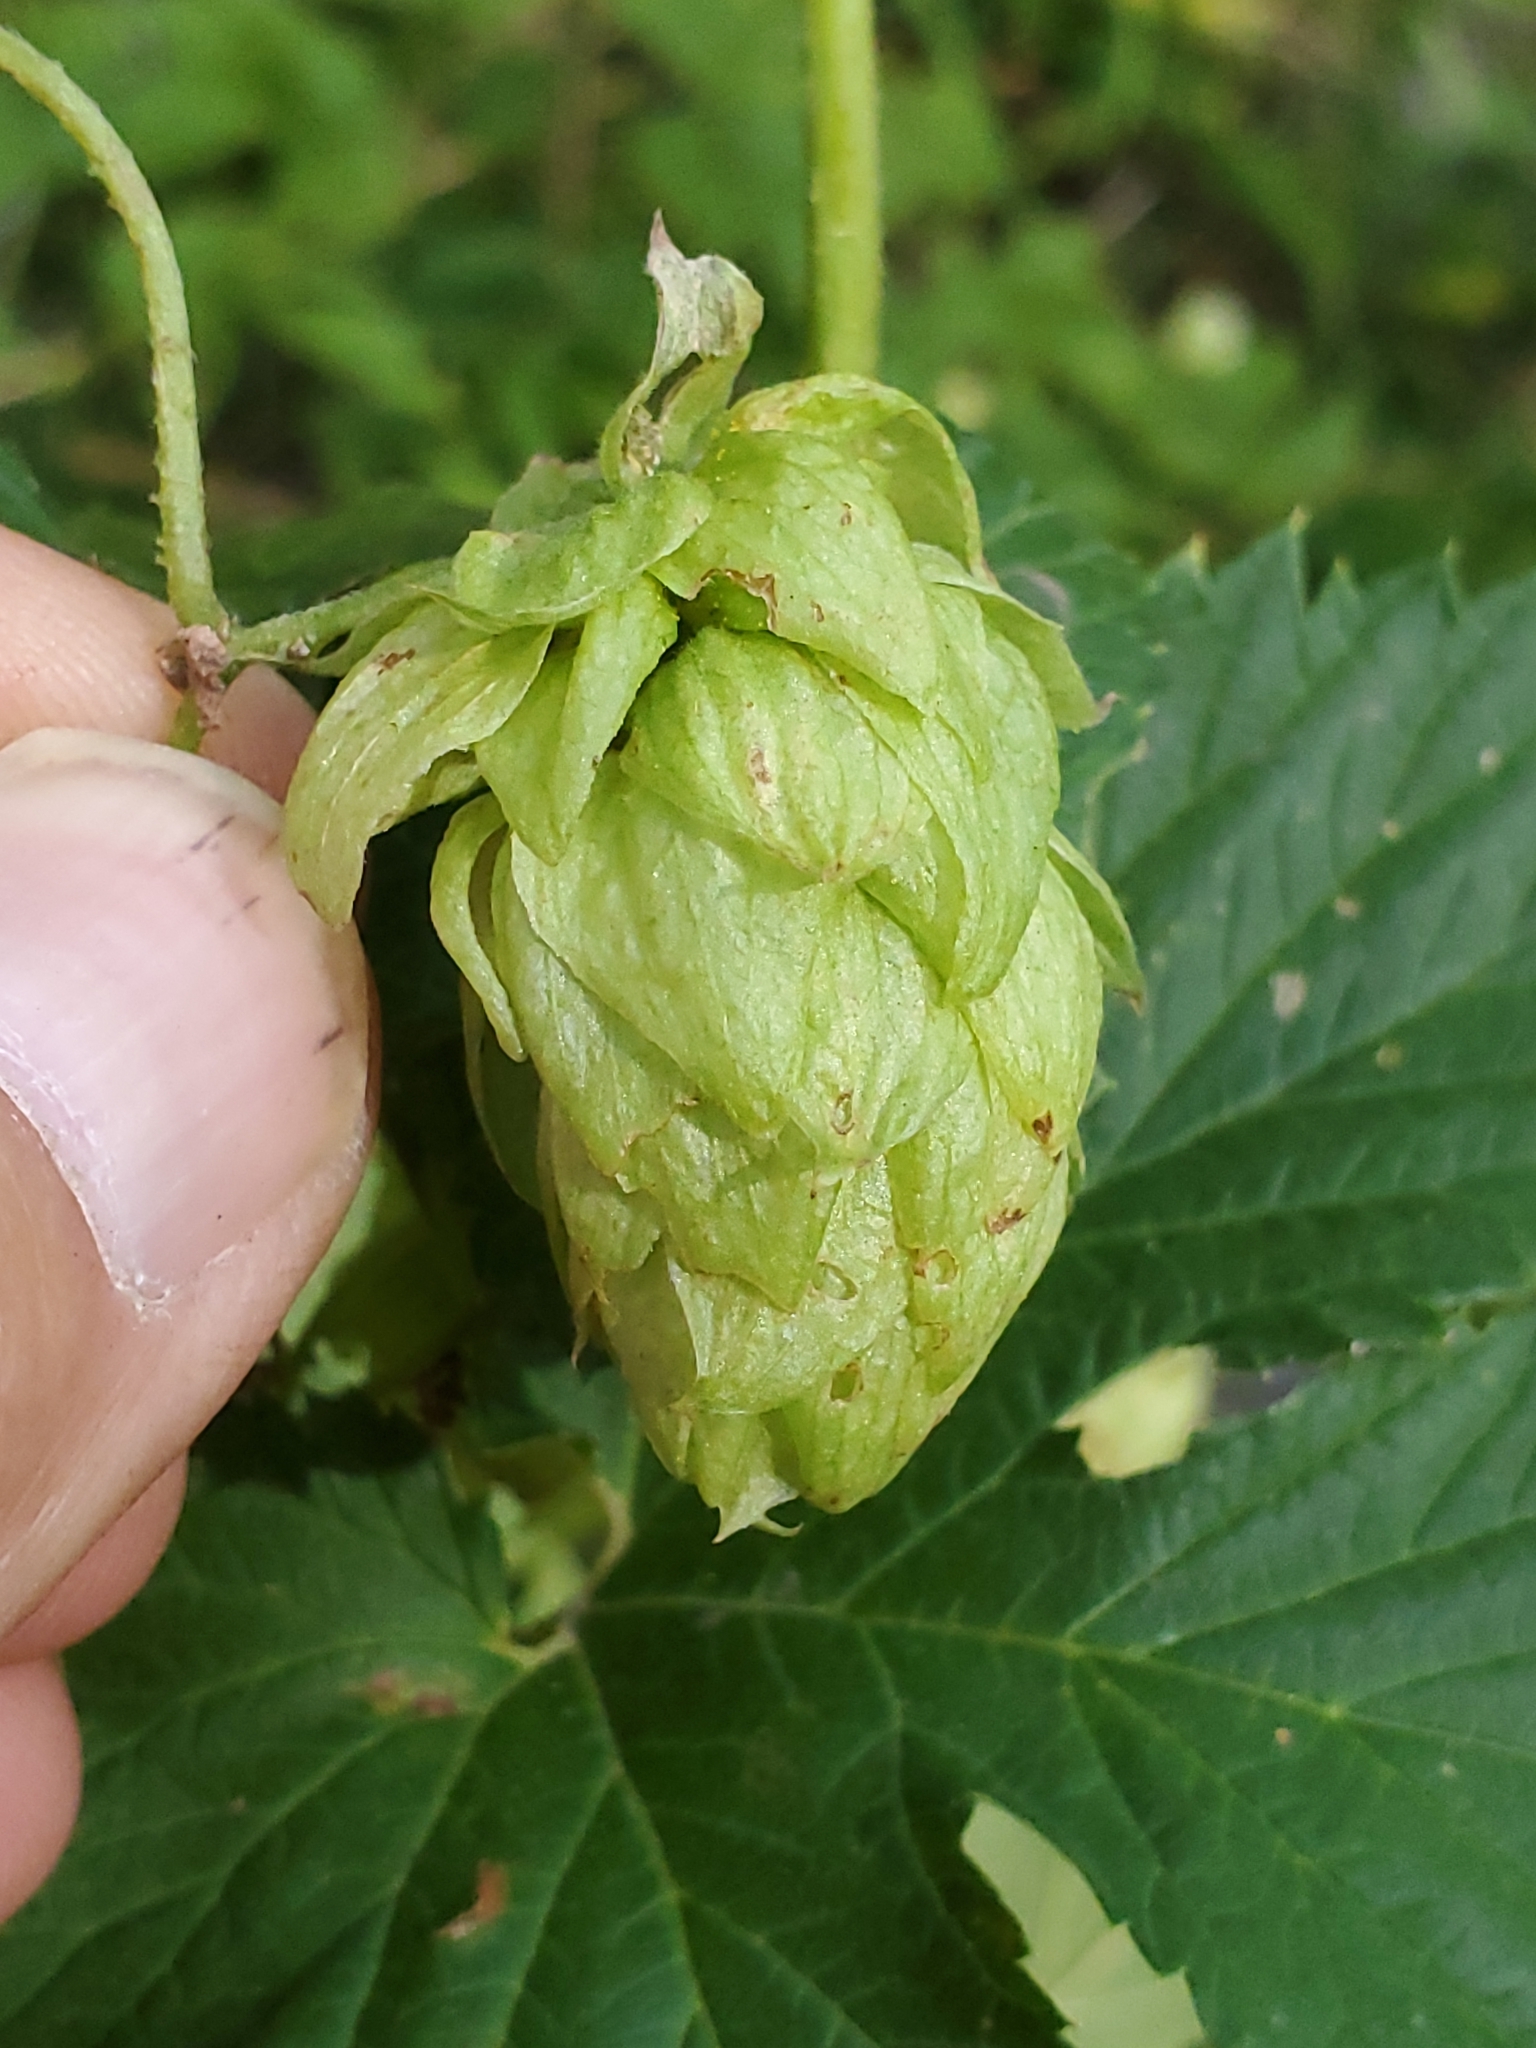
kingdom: Plantae
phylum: Tracheophyta
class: Magnoliopsida
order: Rosales
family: Cannabaceae
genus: Humulus
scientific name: Humulus lupulus
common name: Hop
